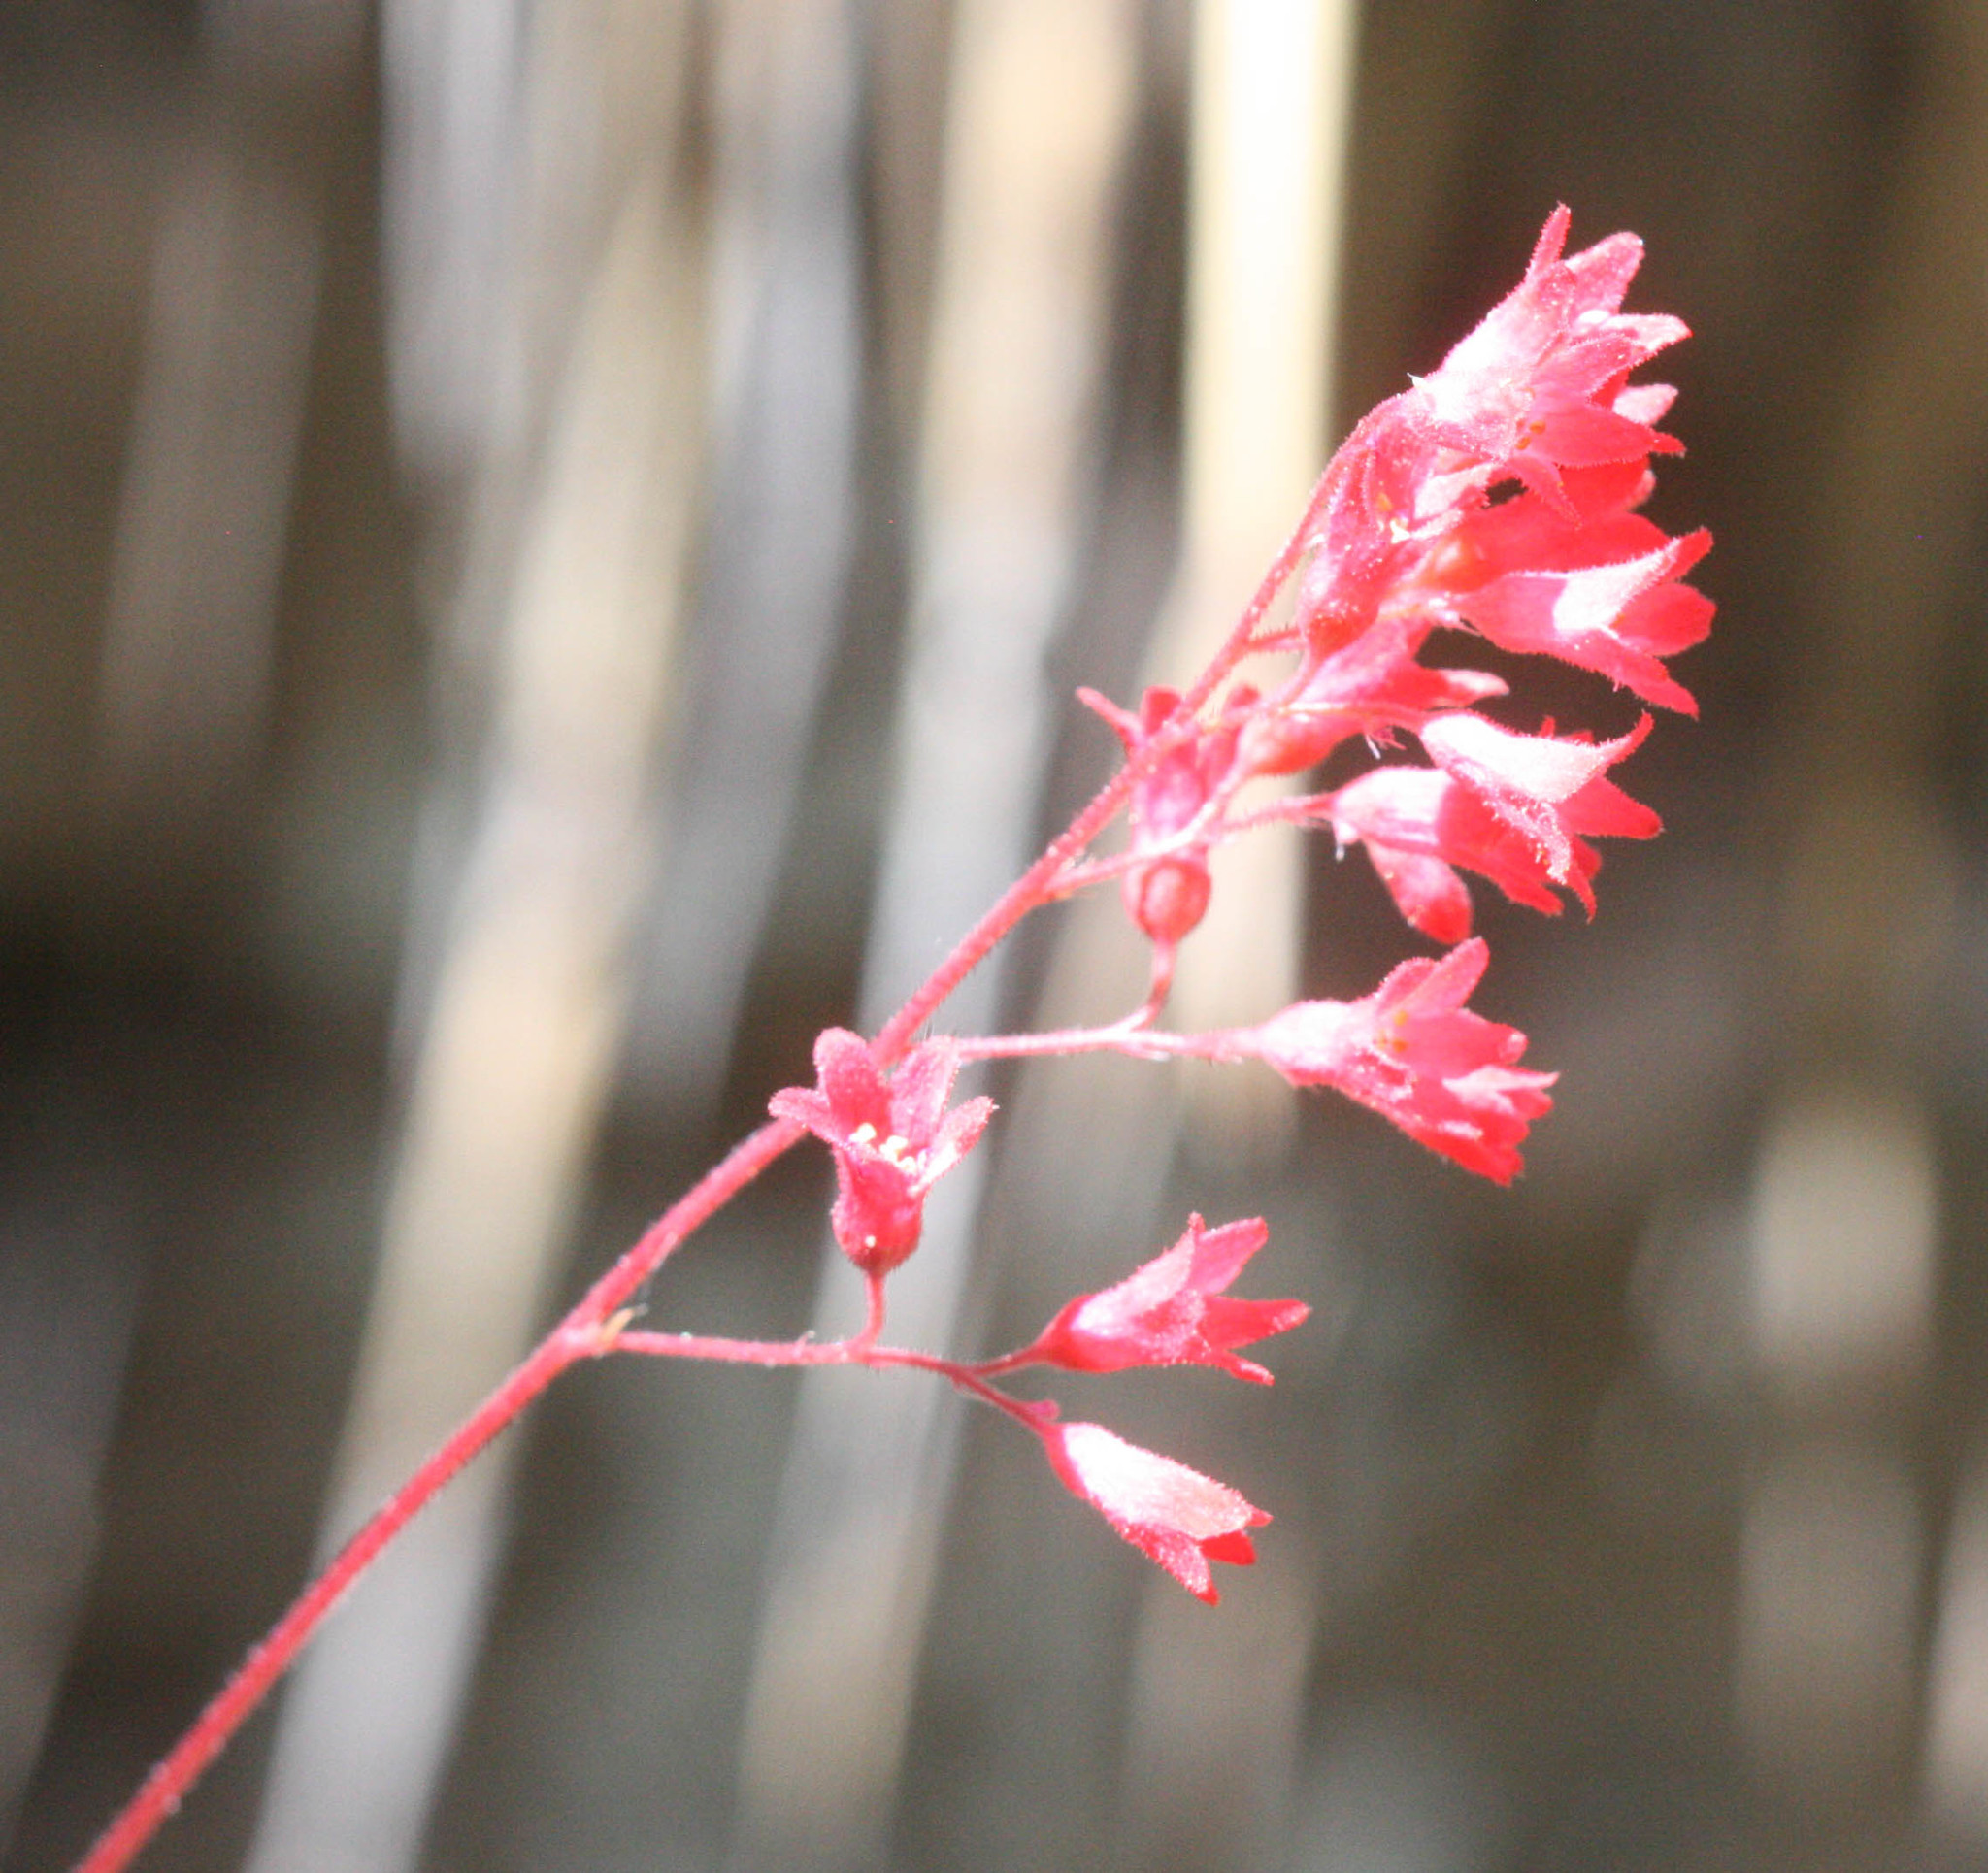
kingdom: Plantae
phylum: Tracheophyta
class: Magnoliopsida
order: Saxifragales
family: Saxifragaceae
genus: Heuchera
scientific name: Heuchera sanguinea
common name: Coralbells
